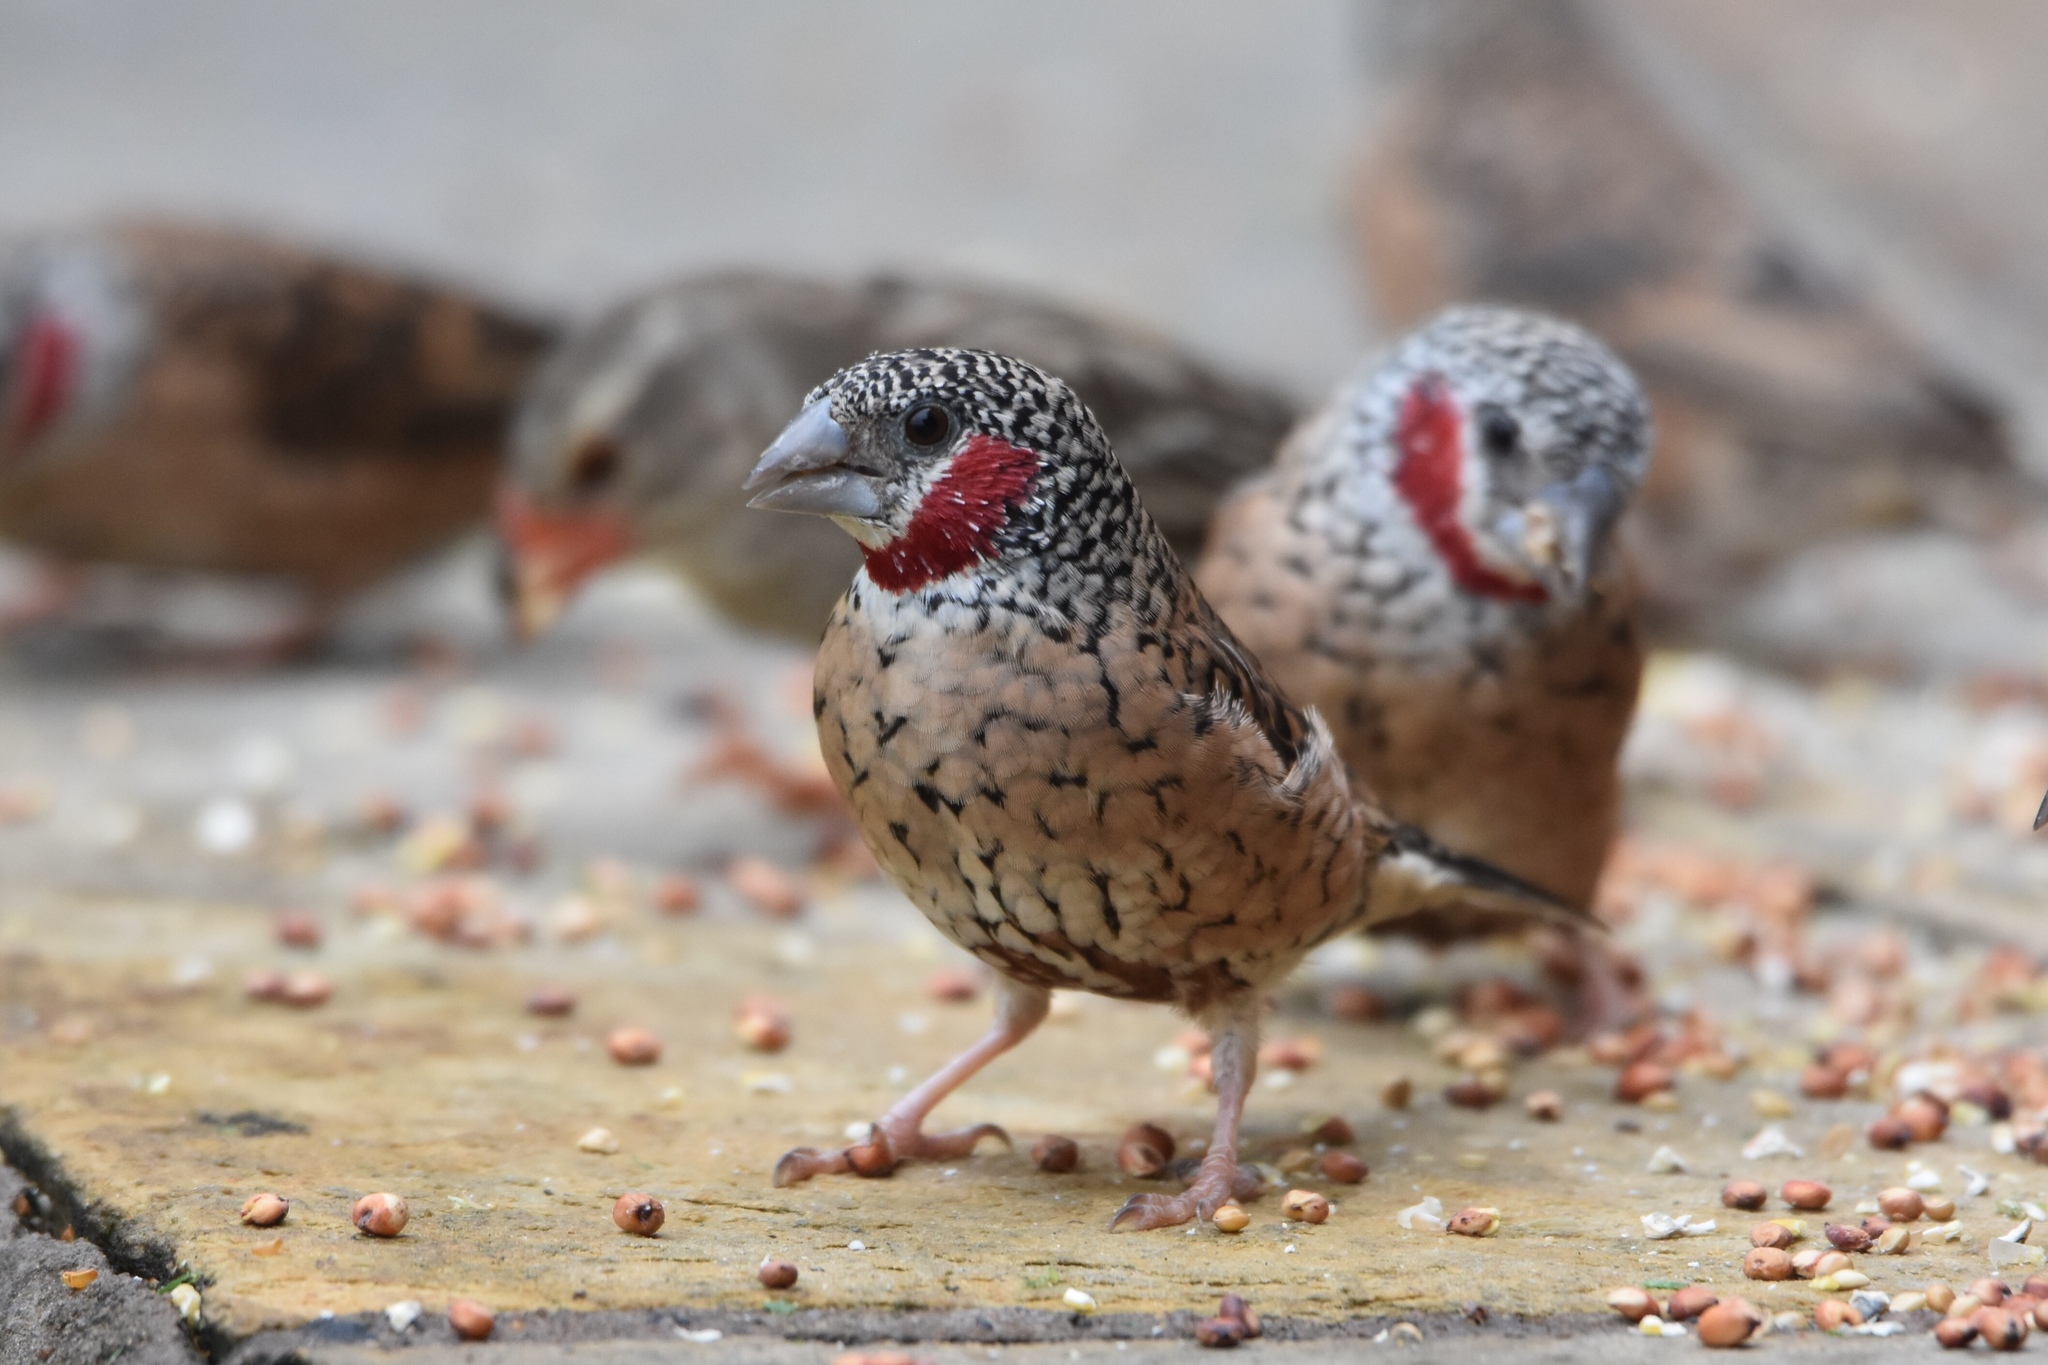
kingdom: Animalia
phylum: Chordata
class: Aves
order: Passeriformes
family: Estrildidae
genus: Amadina
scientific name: Amadina fasciata
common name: Cut-throat finch
